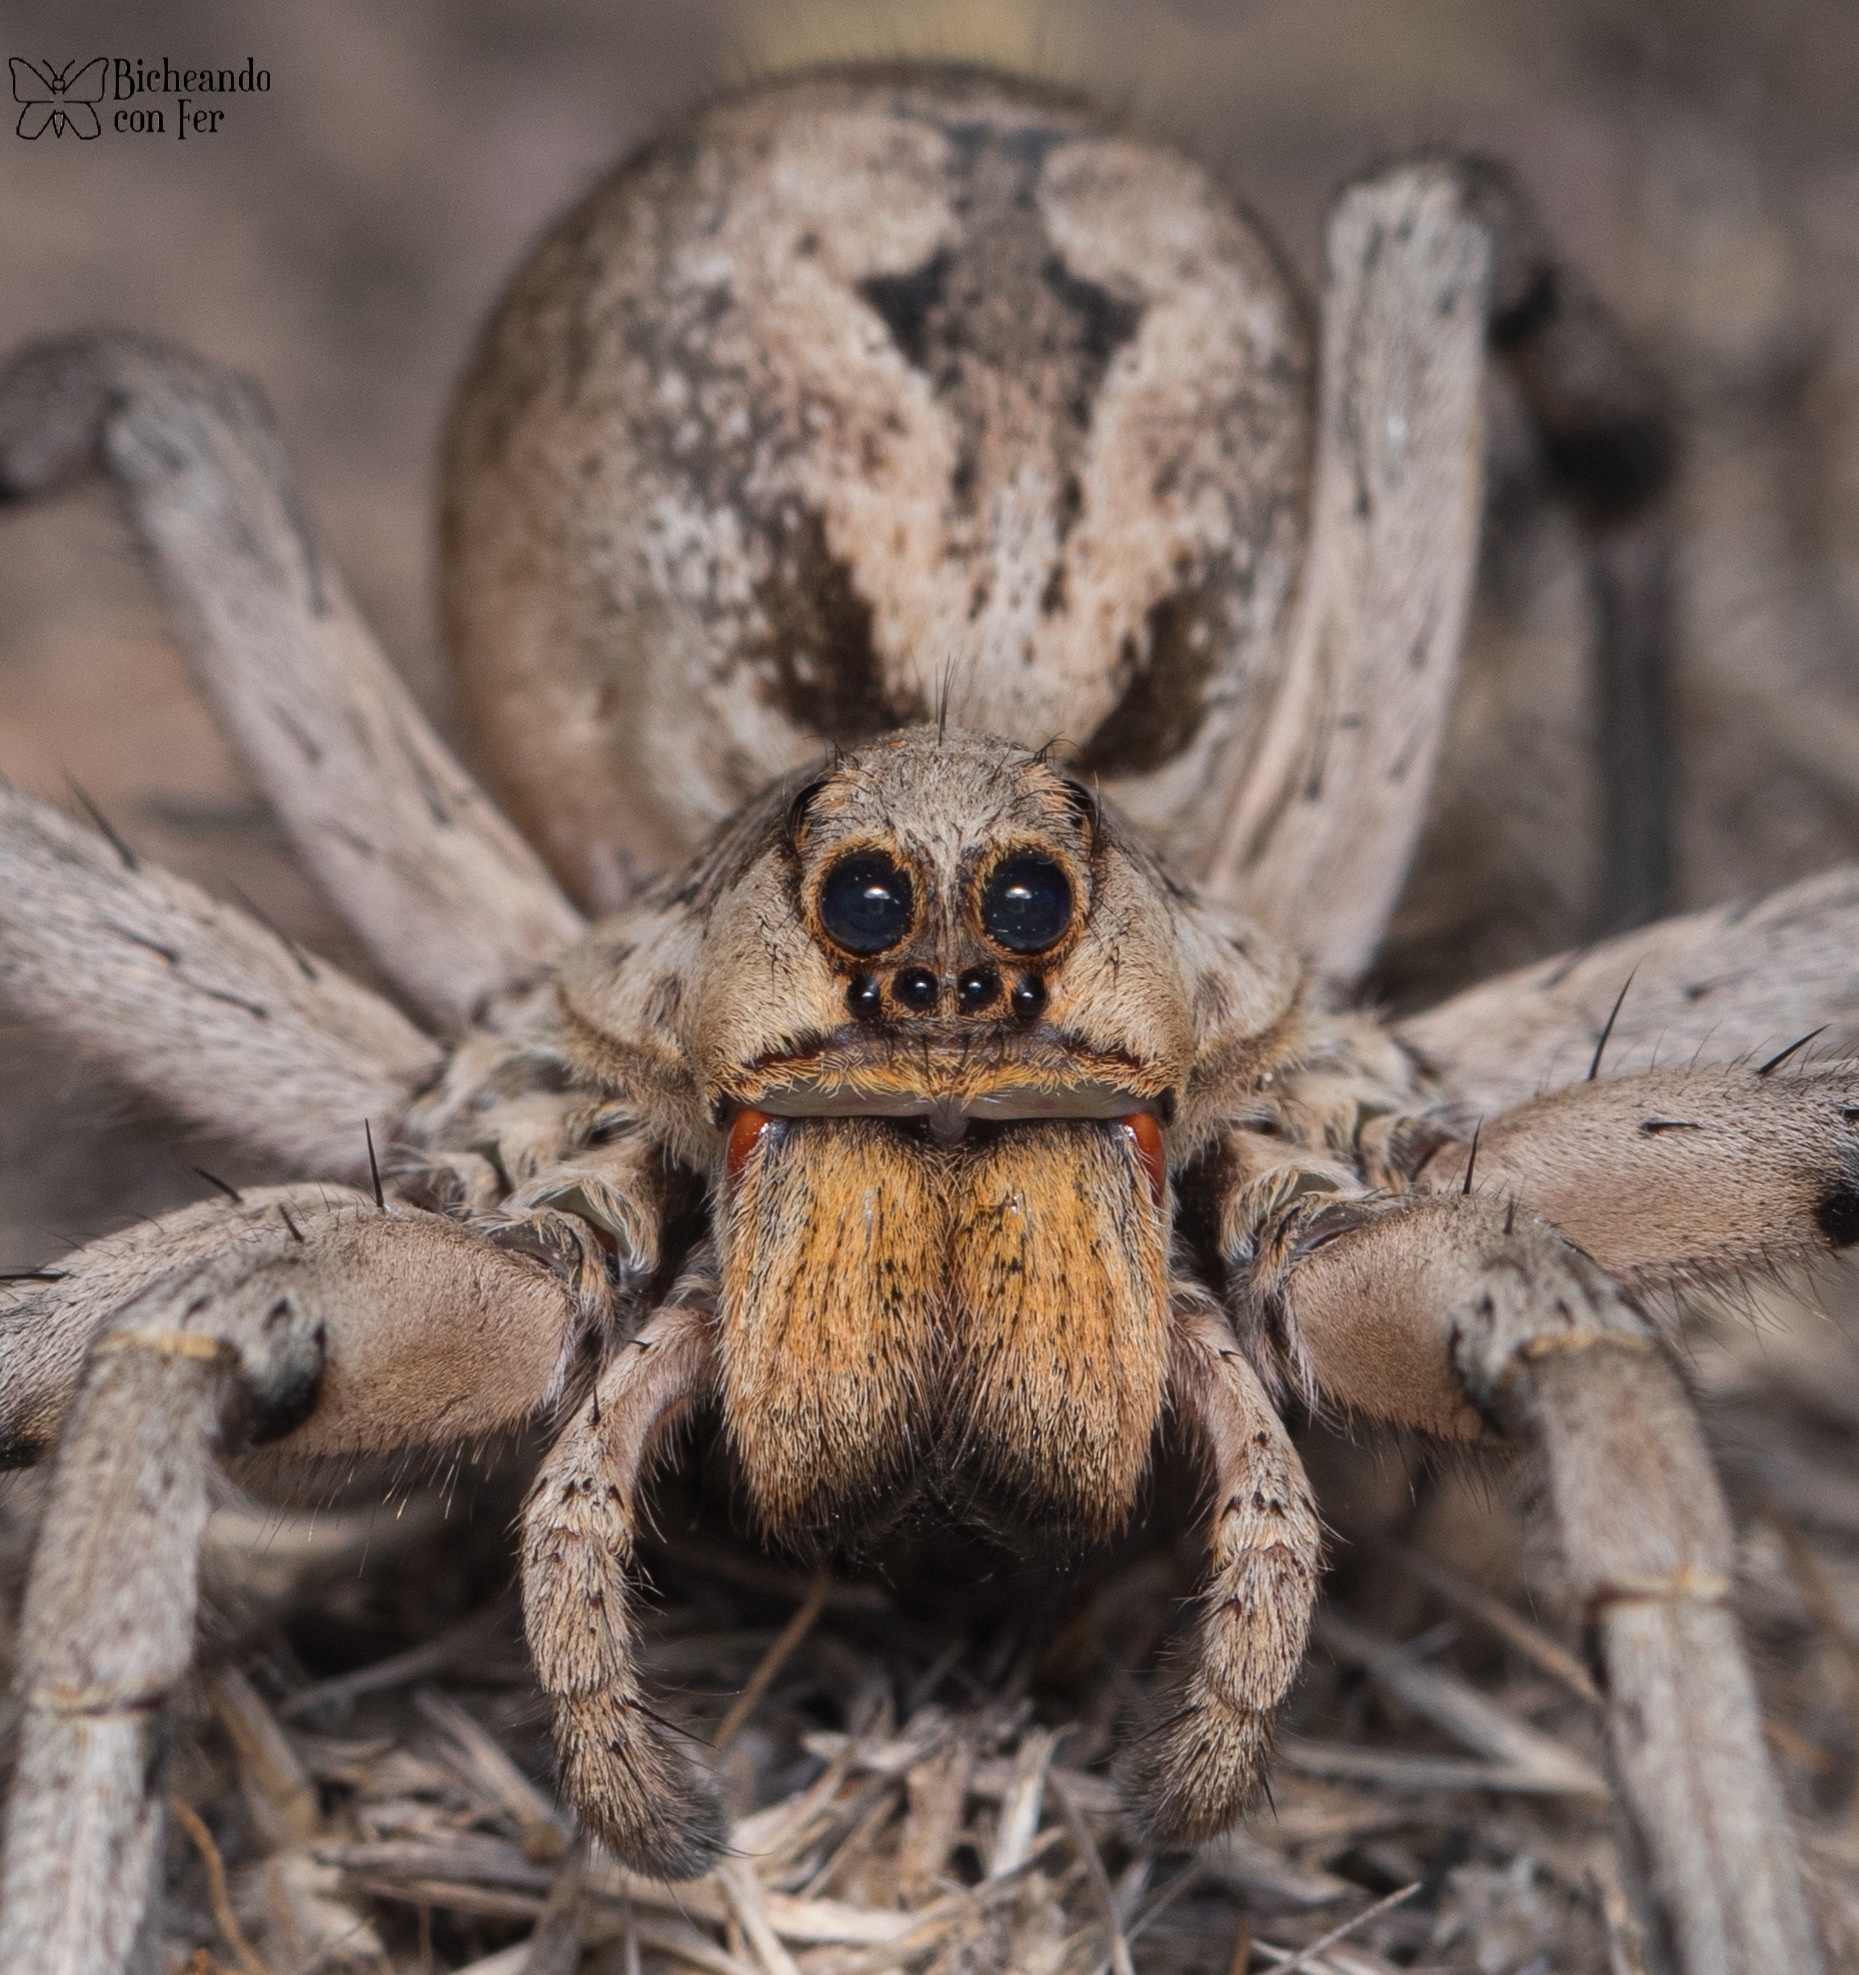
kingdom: Animalia
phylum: Arthropoda
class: Arachnida
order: Araneae
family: Lycosidae
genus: Hogna
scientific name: Hogna carolinensis
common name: Carolina wolf spider
